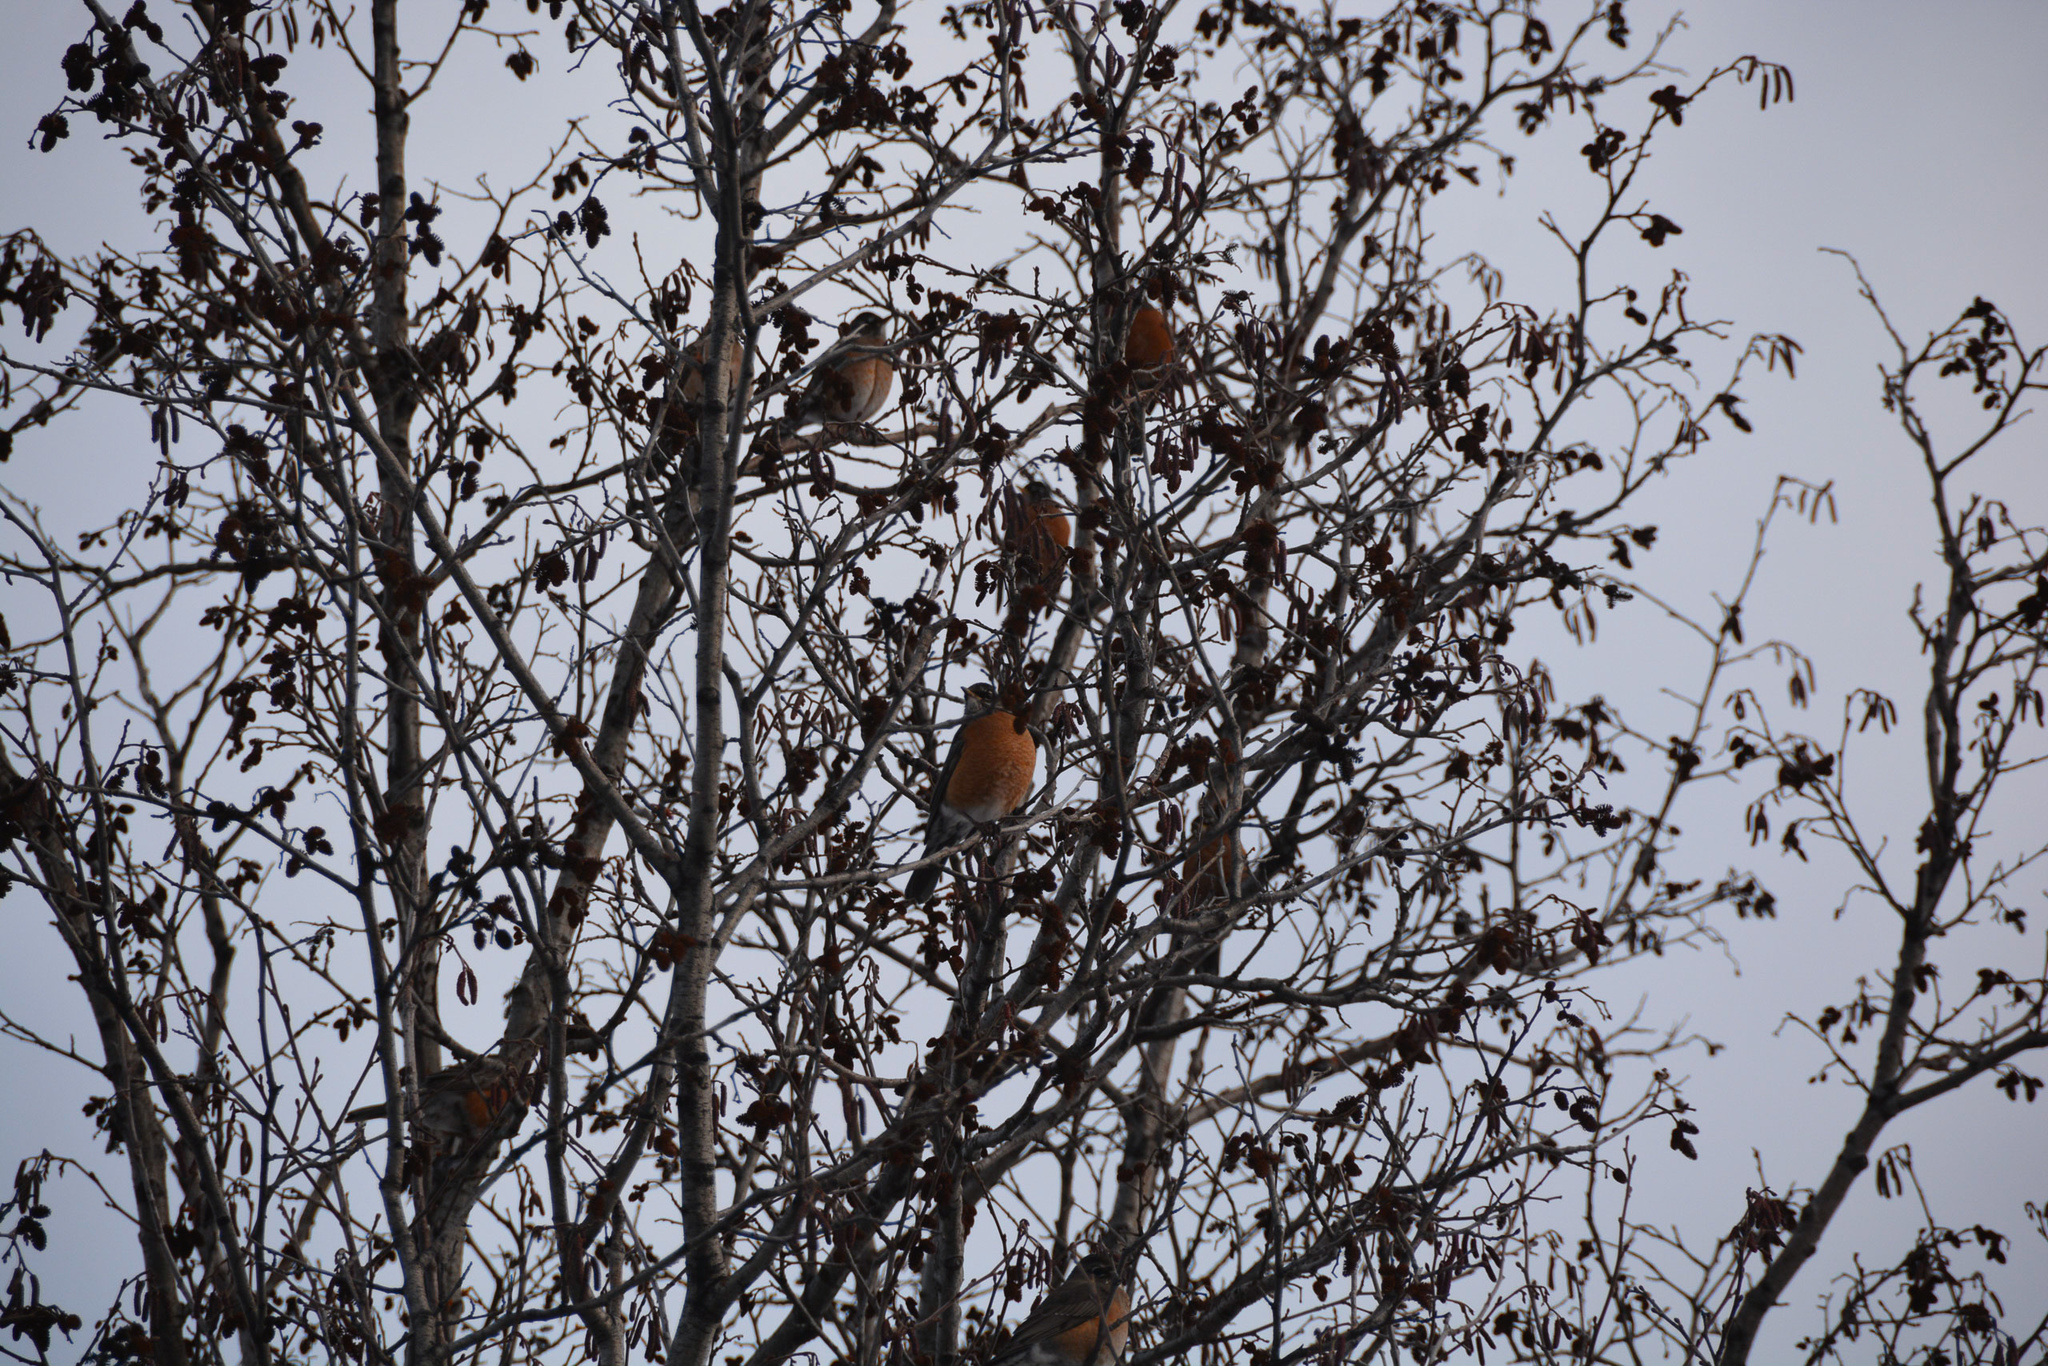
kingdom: Animalia
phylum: Chordata
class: Aves
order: Passeriformes
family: Turdidae
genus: Turdus
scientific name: Turdus migratorius
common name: American robin
